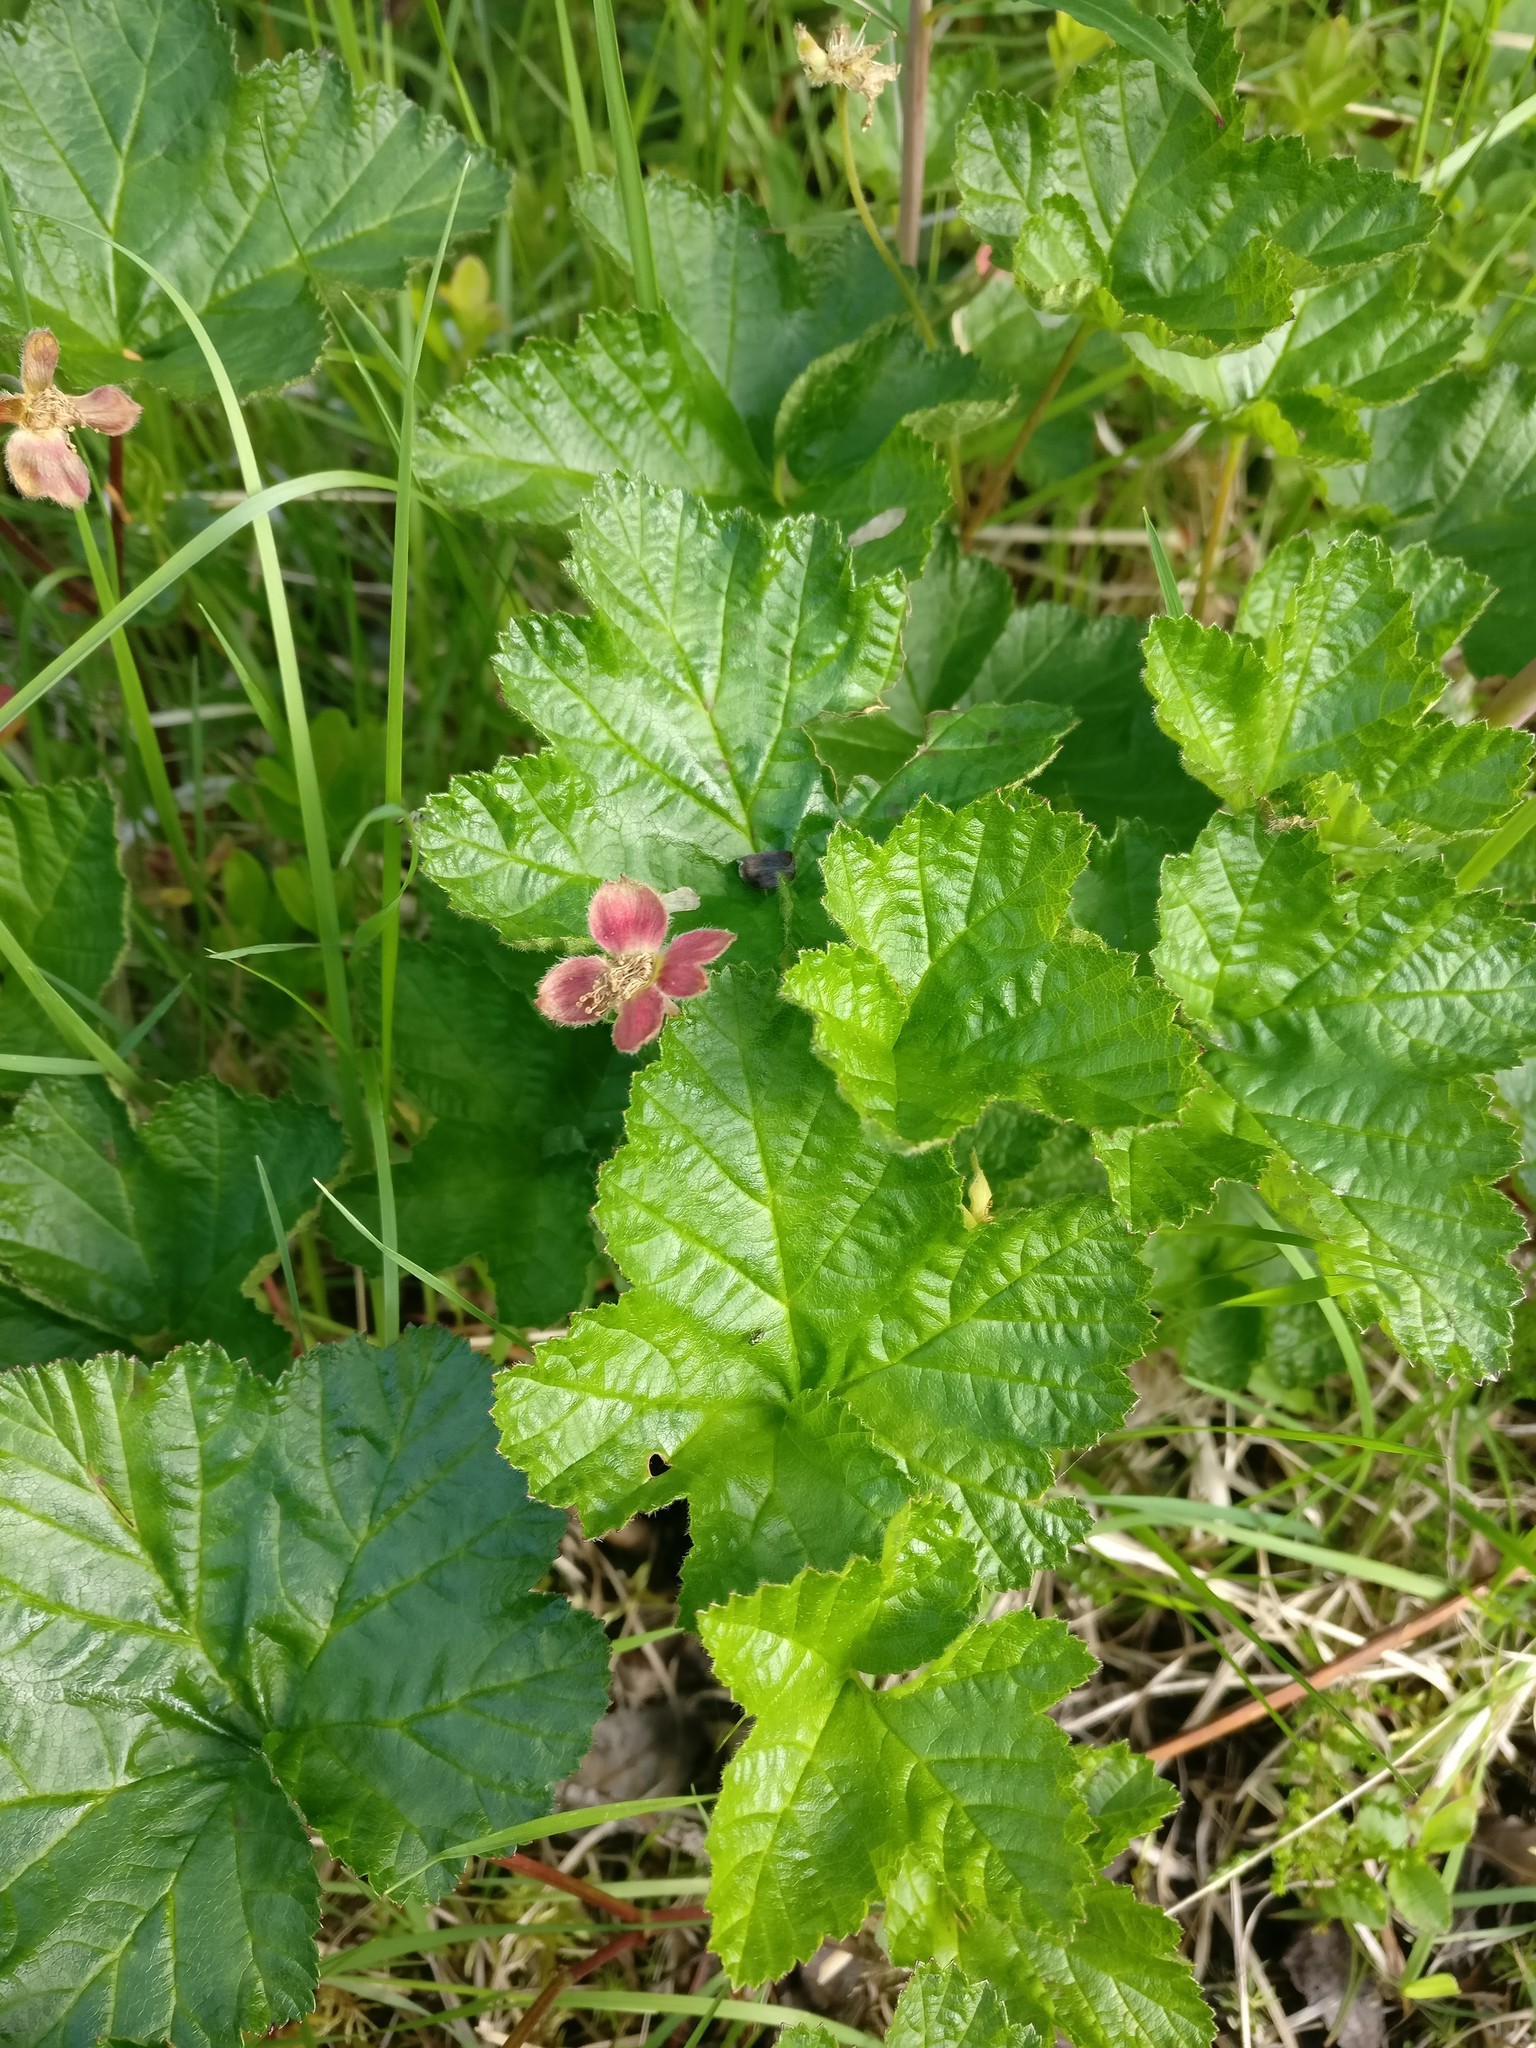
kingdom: Plantae
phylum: Tracheophyta
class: Magnoliopsida
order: Rosales
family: Rosaceae
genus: Rubus
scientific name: Rubus chamaemorus
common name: Cloudberry
